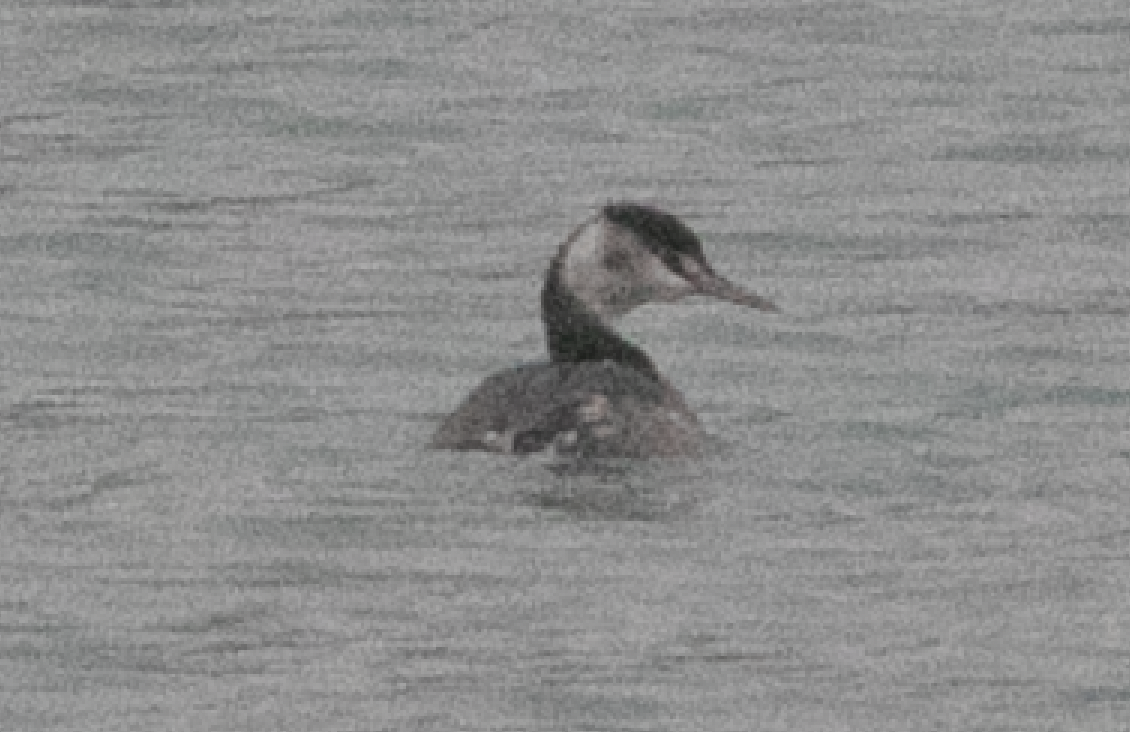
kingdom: Animalia
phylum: Chordata
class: Aves
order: Podicipediformes
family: Podicipedidae
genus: Podiceps
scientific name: Podiceps cristatus
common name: Great crested grebe
